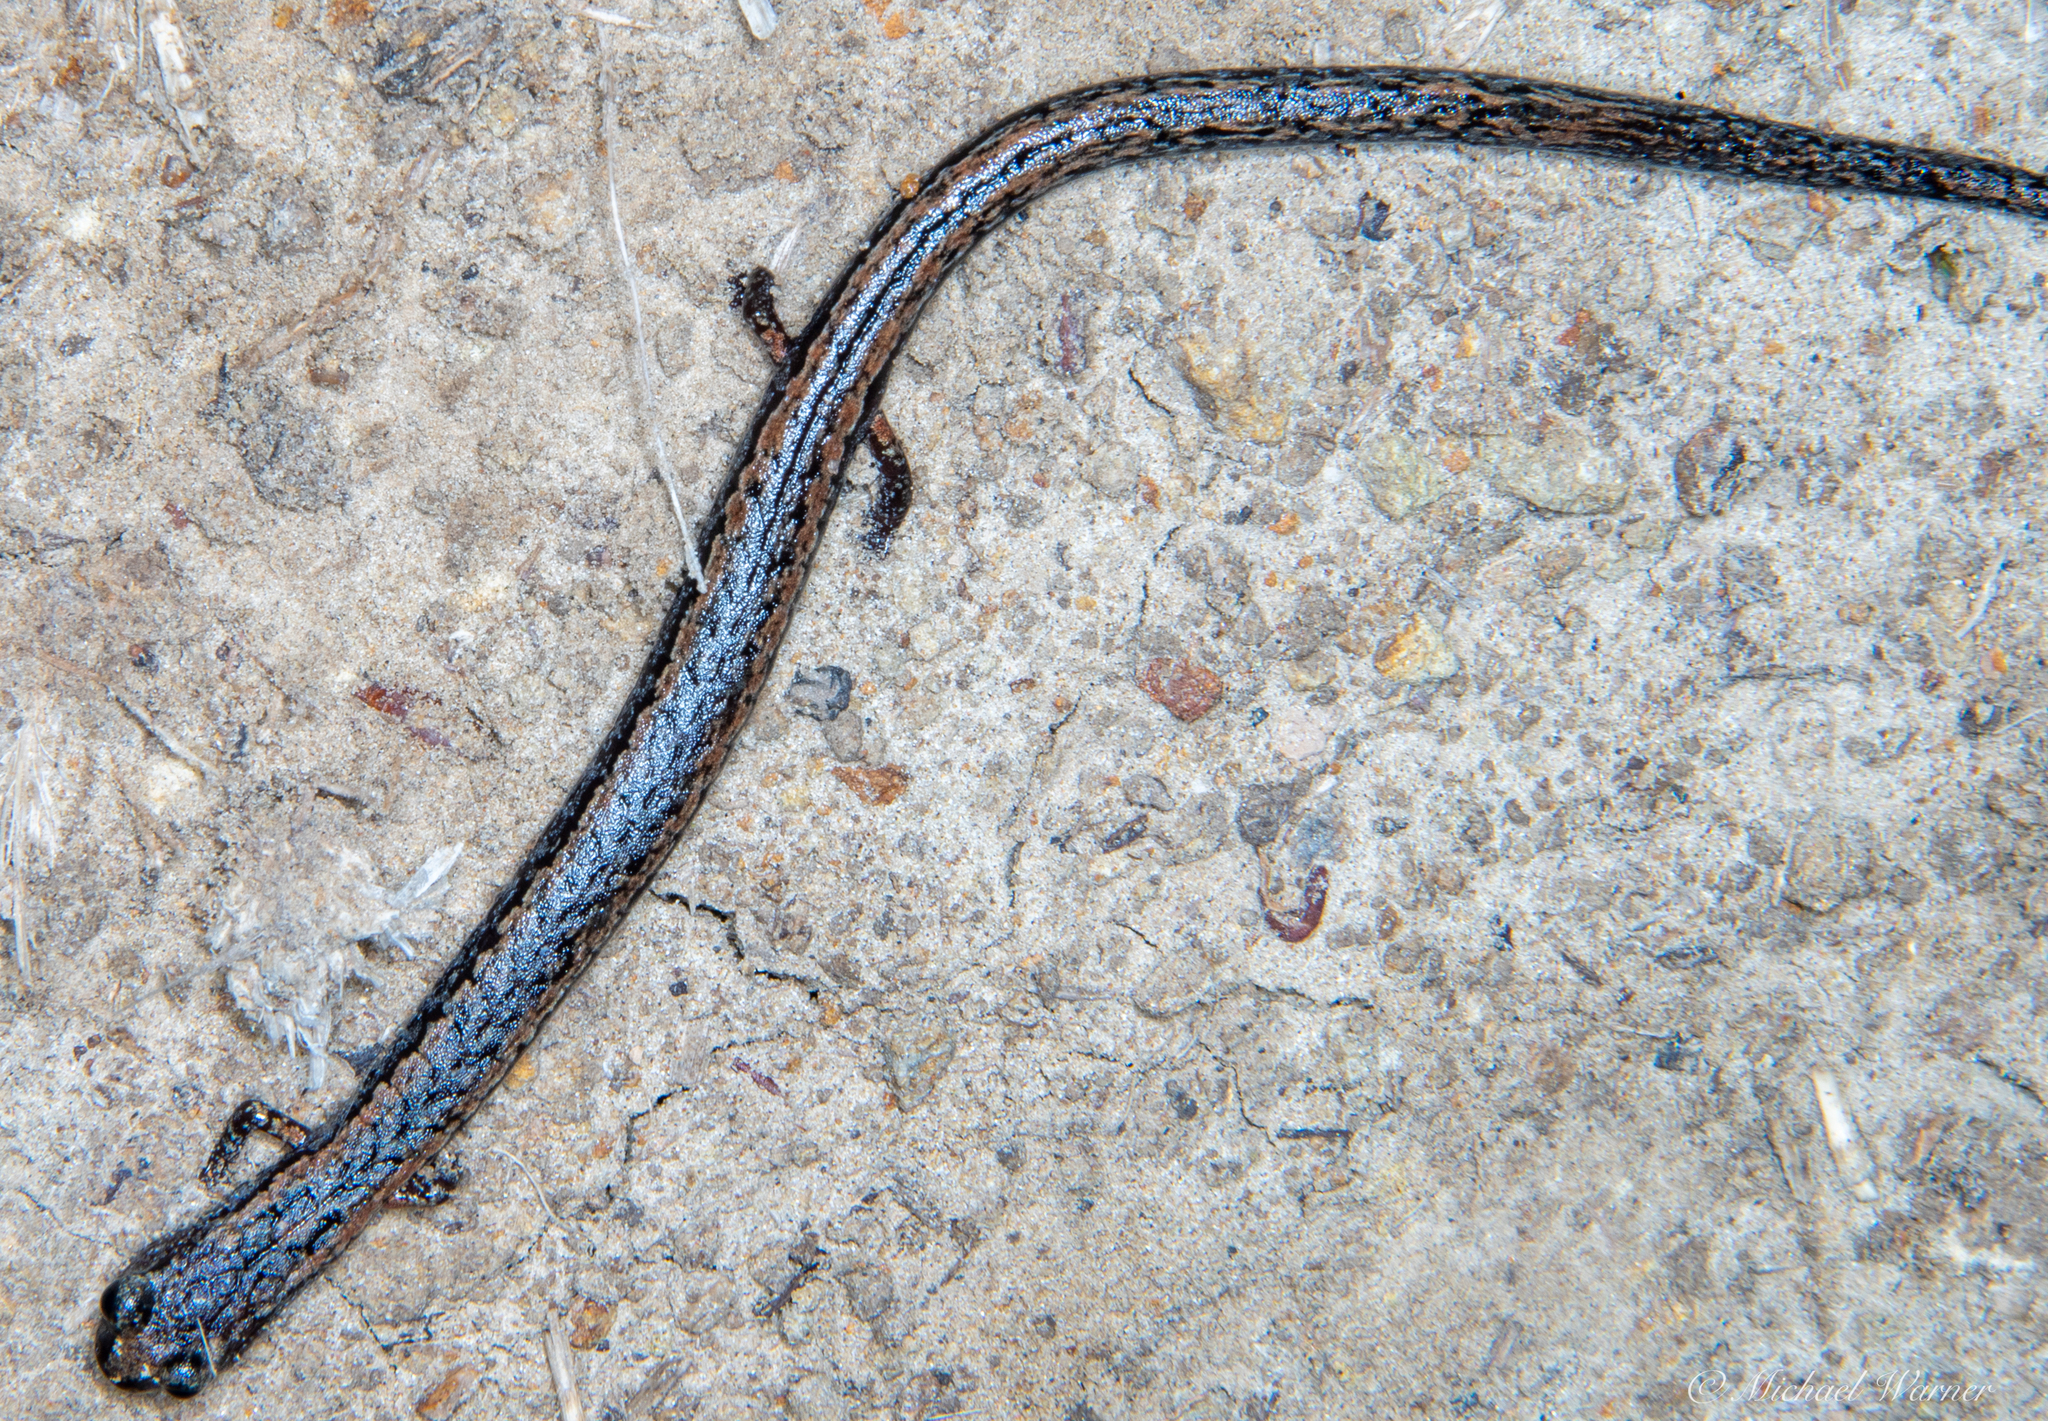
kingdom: Animalia
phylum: Chordata
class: Amphibia
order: Caudata
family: Plethodontidae
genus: Batrachoseps
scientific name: Batrachoseps attenuatus
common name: California slender salamander
